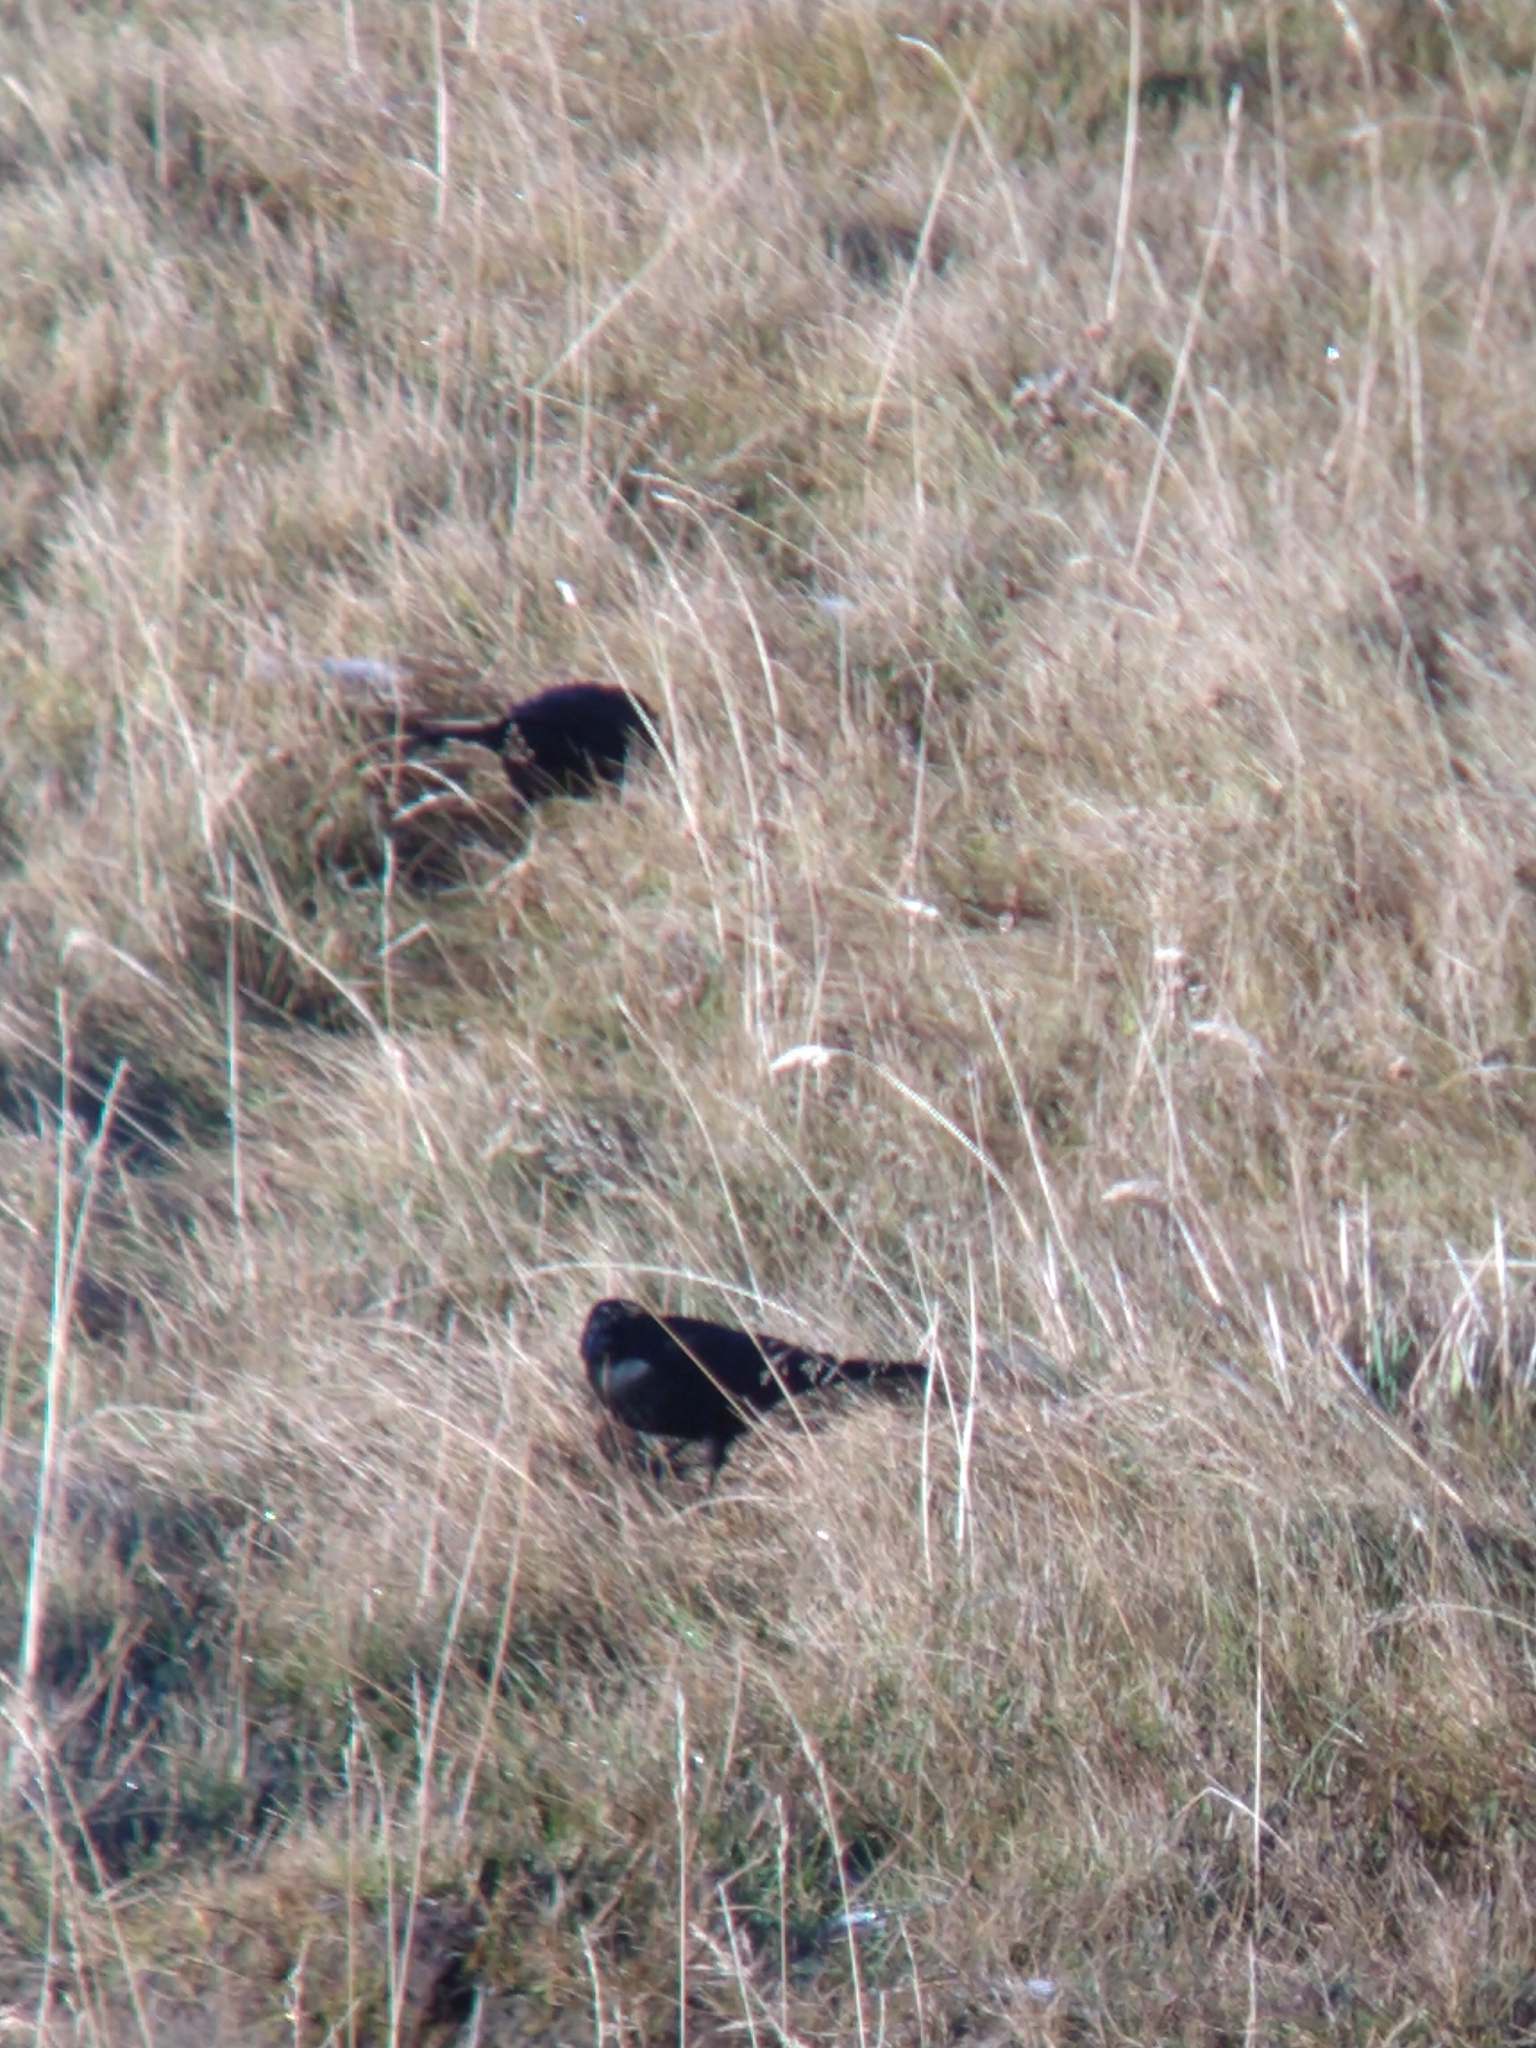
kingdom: Animalia
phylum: Chordata
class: Aves
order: Passeriformes
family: Icteridae
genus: Curaeus
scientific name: Curaeus curaeus
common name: Austral blackbird
